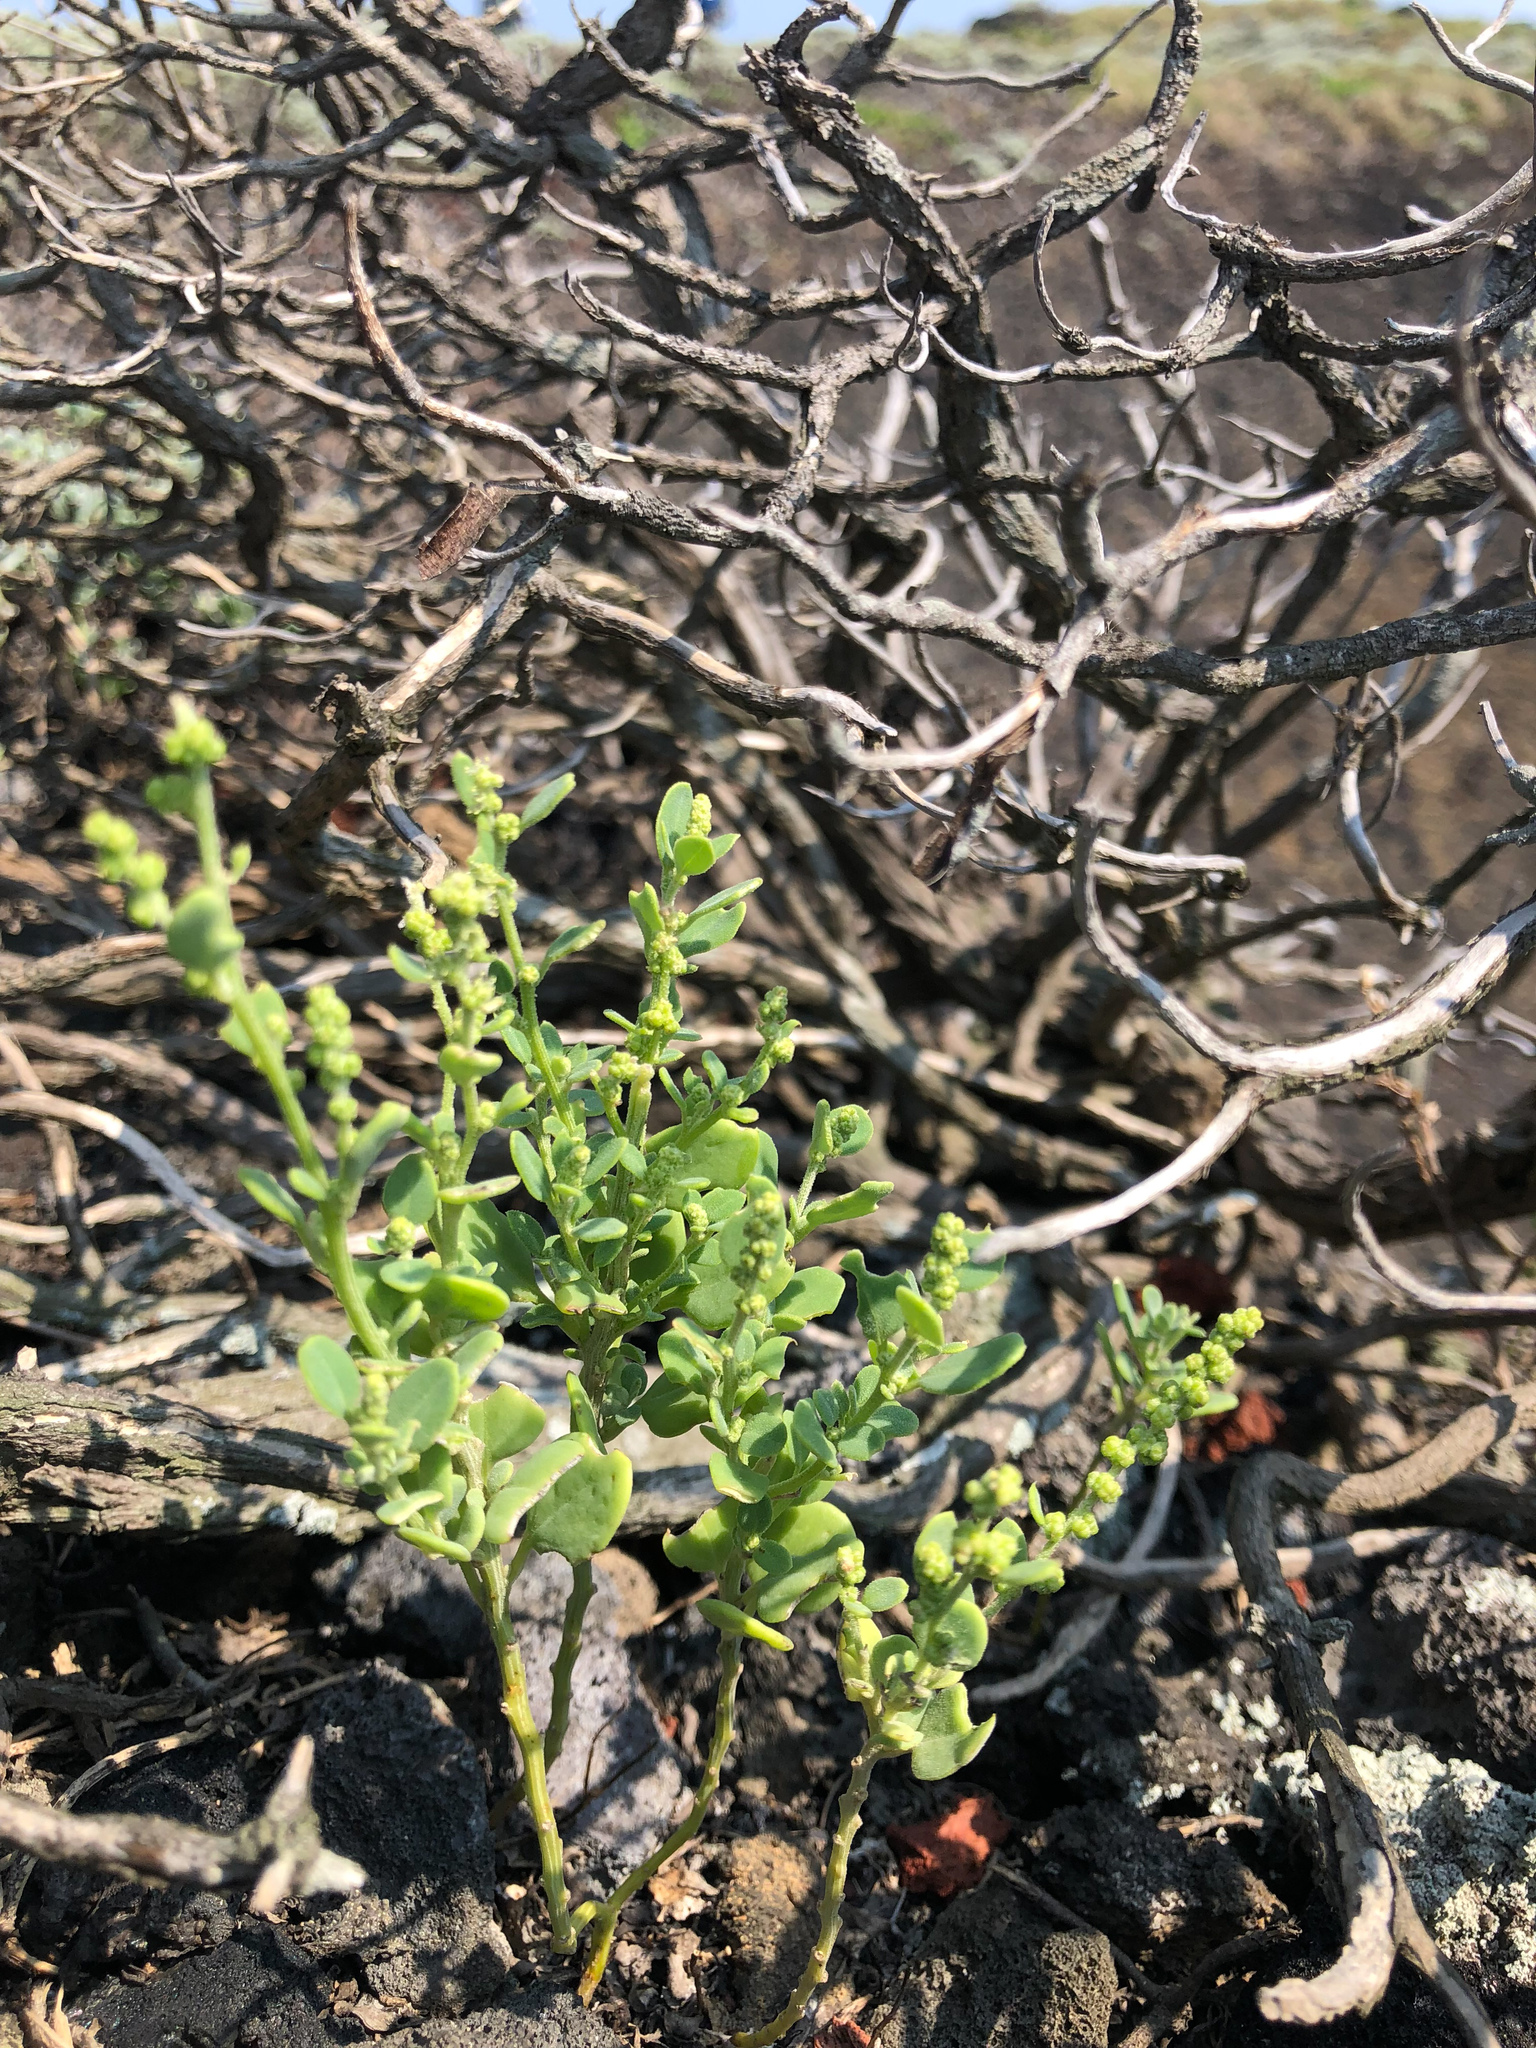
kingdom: Plantae
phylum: Tracheophyta
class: Magnoliopsida
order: Caryophyllales
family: Amaranthaceae
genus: Chenopodium
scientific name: Chenopodium acuminatum
